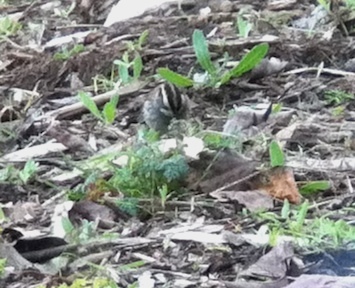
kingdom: Animalia
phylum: Chordata
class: Aves
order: Passeriformes
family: Passerellidae
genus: Zonotrichia
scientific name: Zonotrichia albicollis
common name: White-throated sparrow
